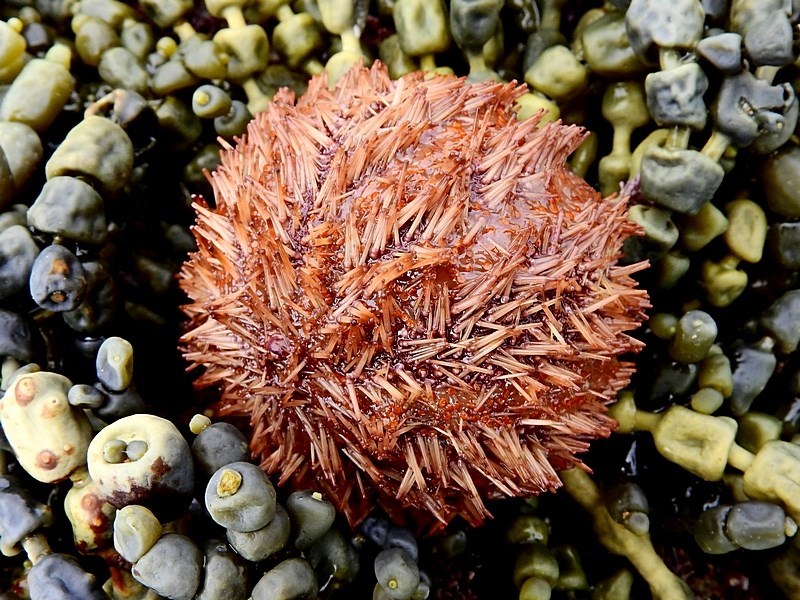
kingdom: Animalia
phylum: Echinodermata
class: Echinoidea
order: Camarodonta
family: Temnopleuridae
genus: Holopneustes
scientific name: Holopneustes purpurascens
